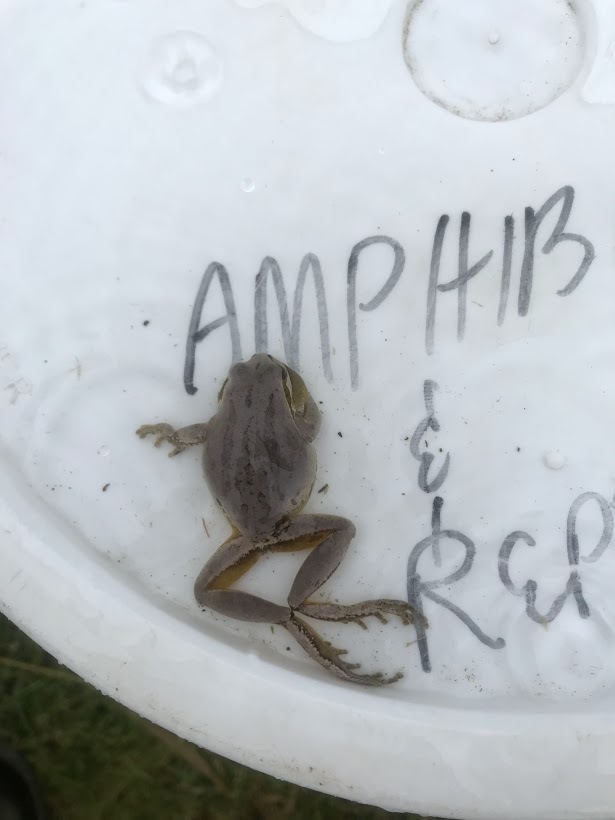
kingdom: Animalia
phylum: Chordata
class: Amphibia
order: Anura
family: Hylidae
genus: Pseudacris
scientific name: Pseudacris regilla
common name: Pacific chorus frog
